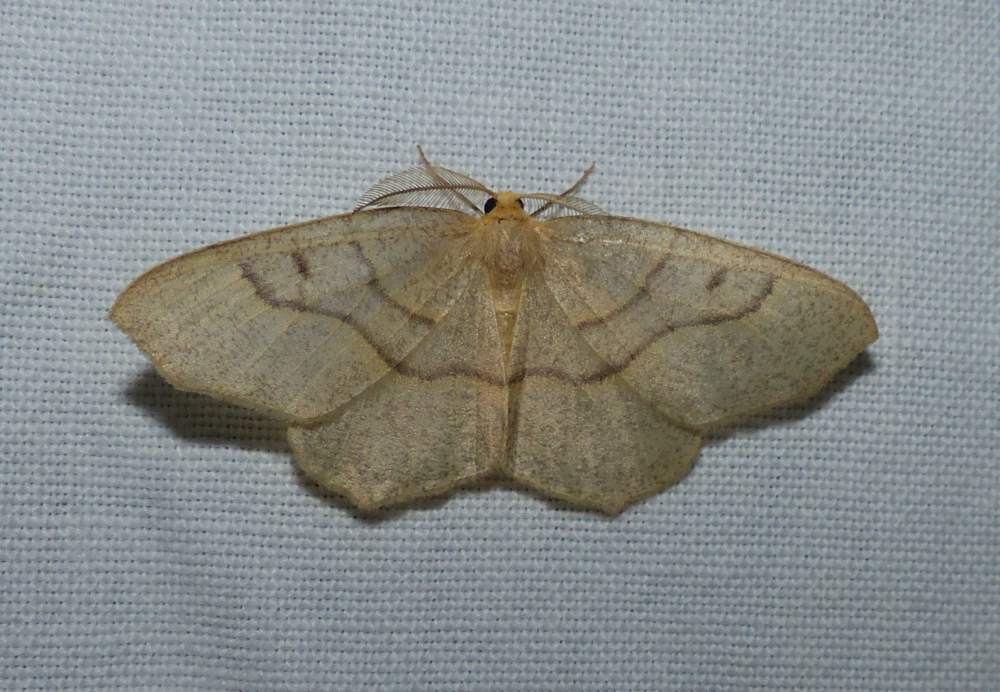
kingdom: Animalia
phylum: Arthropoda
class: Insecta
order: Lepidoptera
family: Geometridae
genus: Lambdina
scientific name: Lambdina fiscellaria
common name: Hemlock looper
